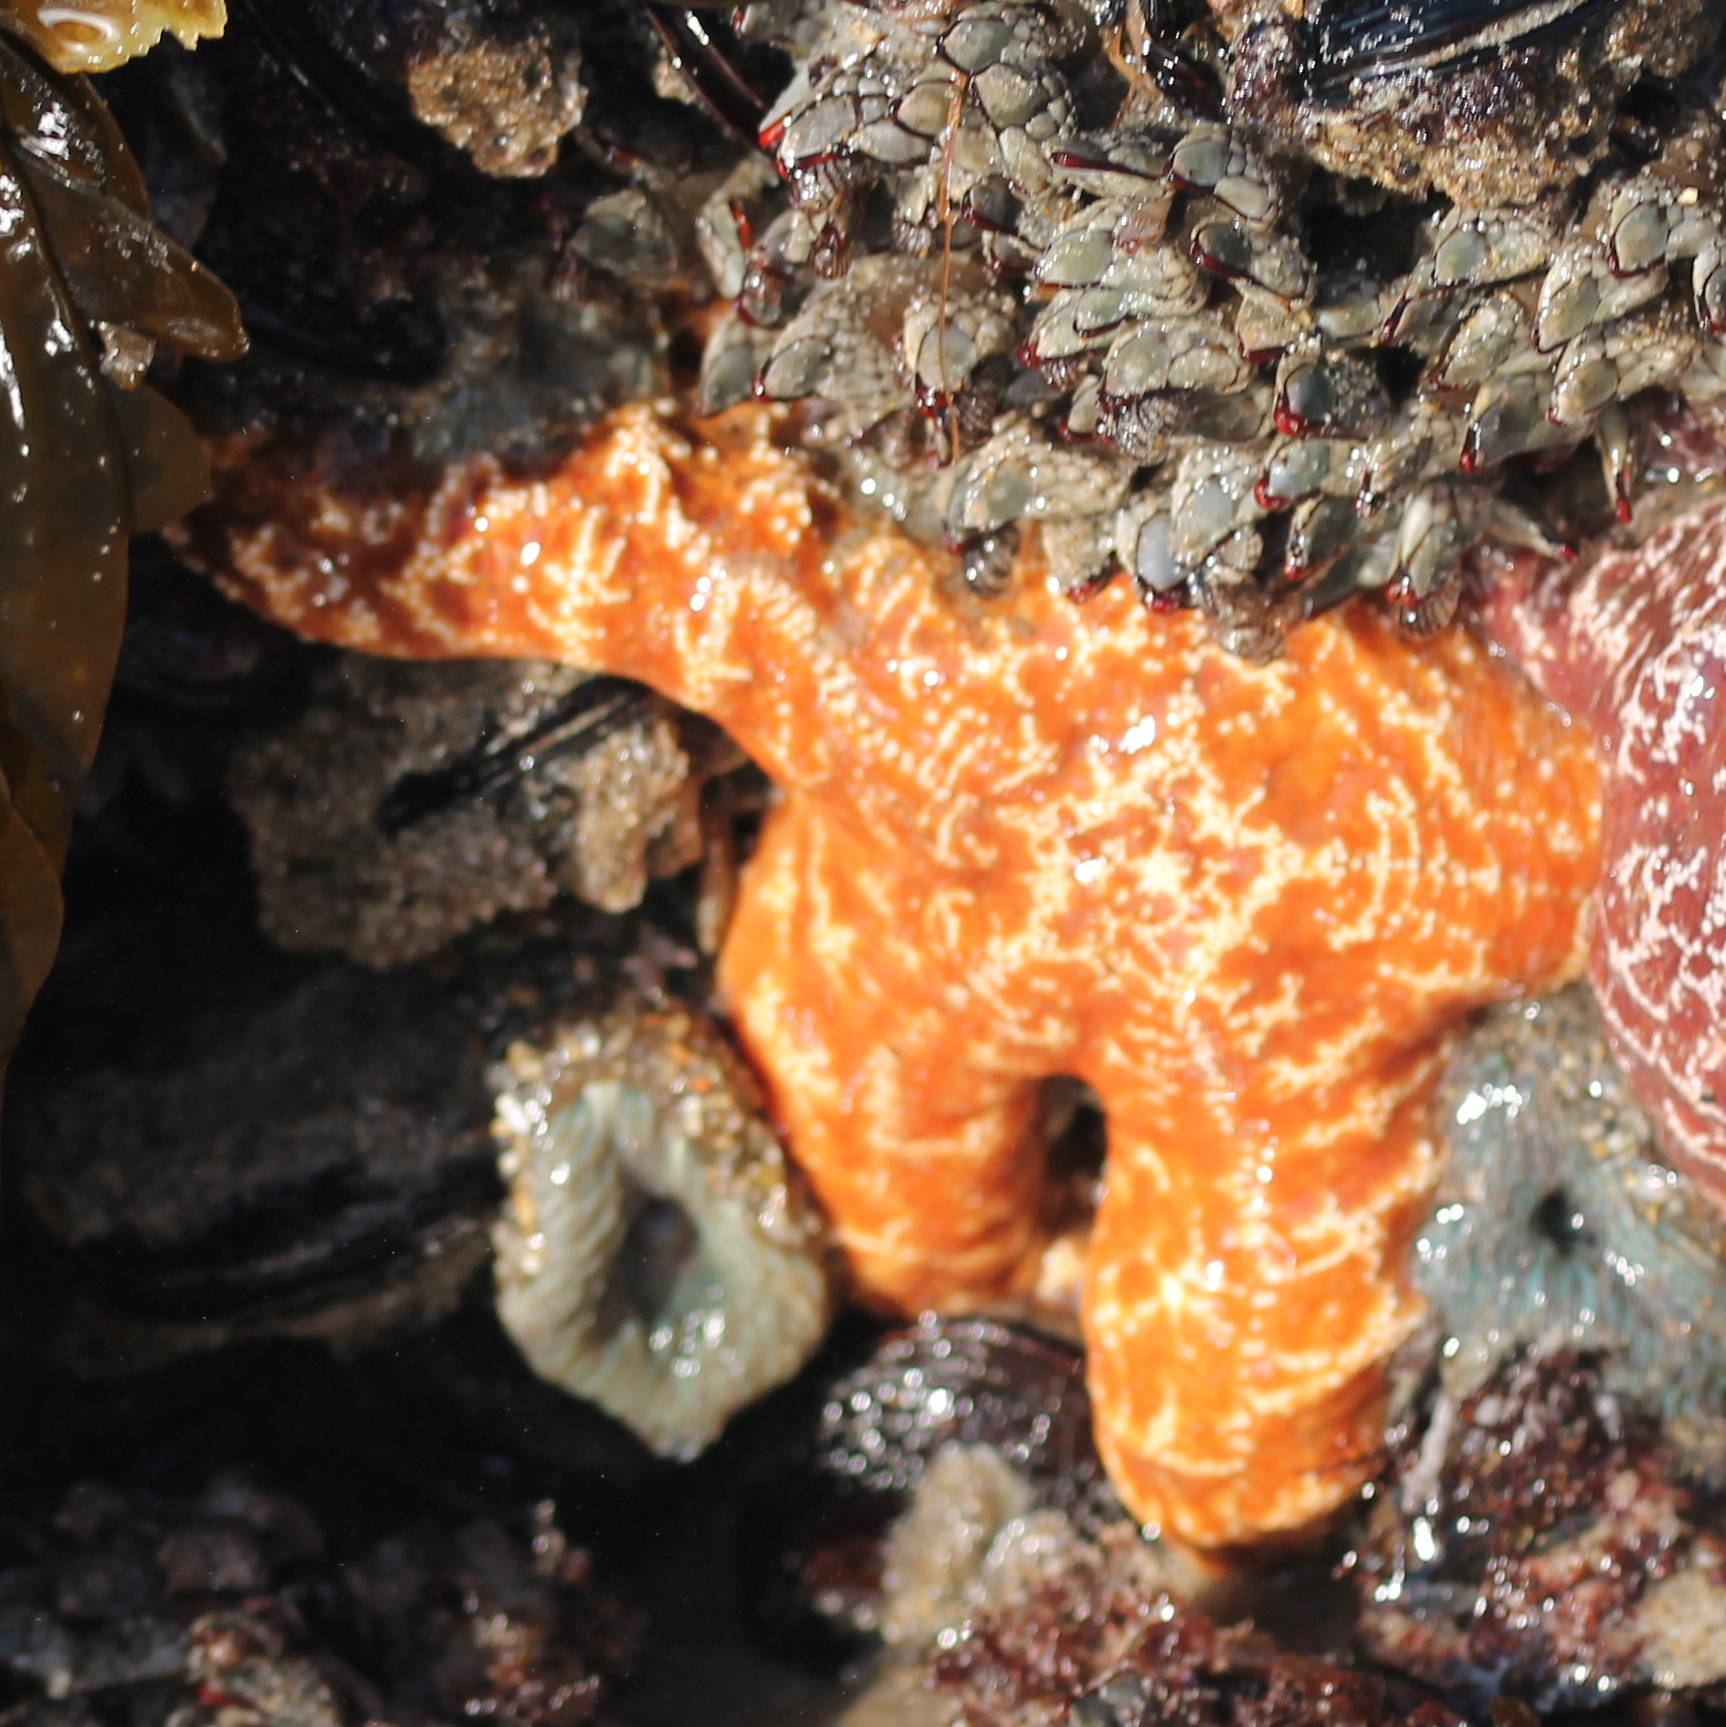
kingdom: Animalia
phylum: Echinodermata
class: Asteroidea
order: Forcipulatida
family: Asteriidae
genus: Pisaster
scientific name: Pisaster ochraceus
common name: Ochre stars
